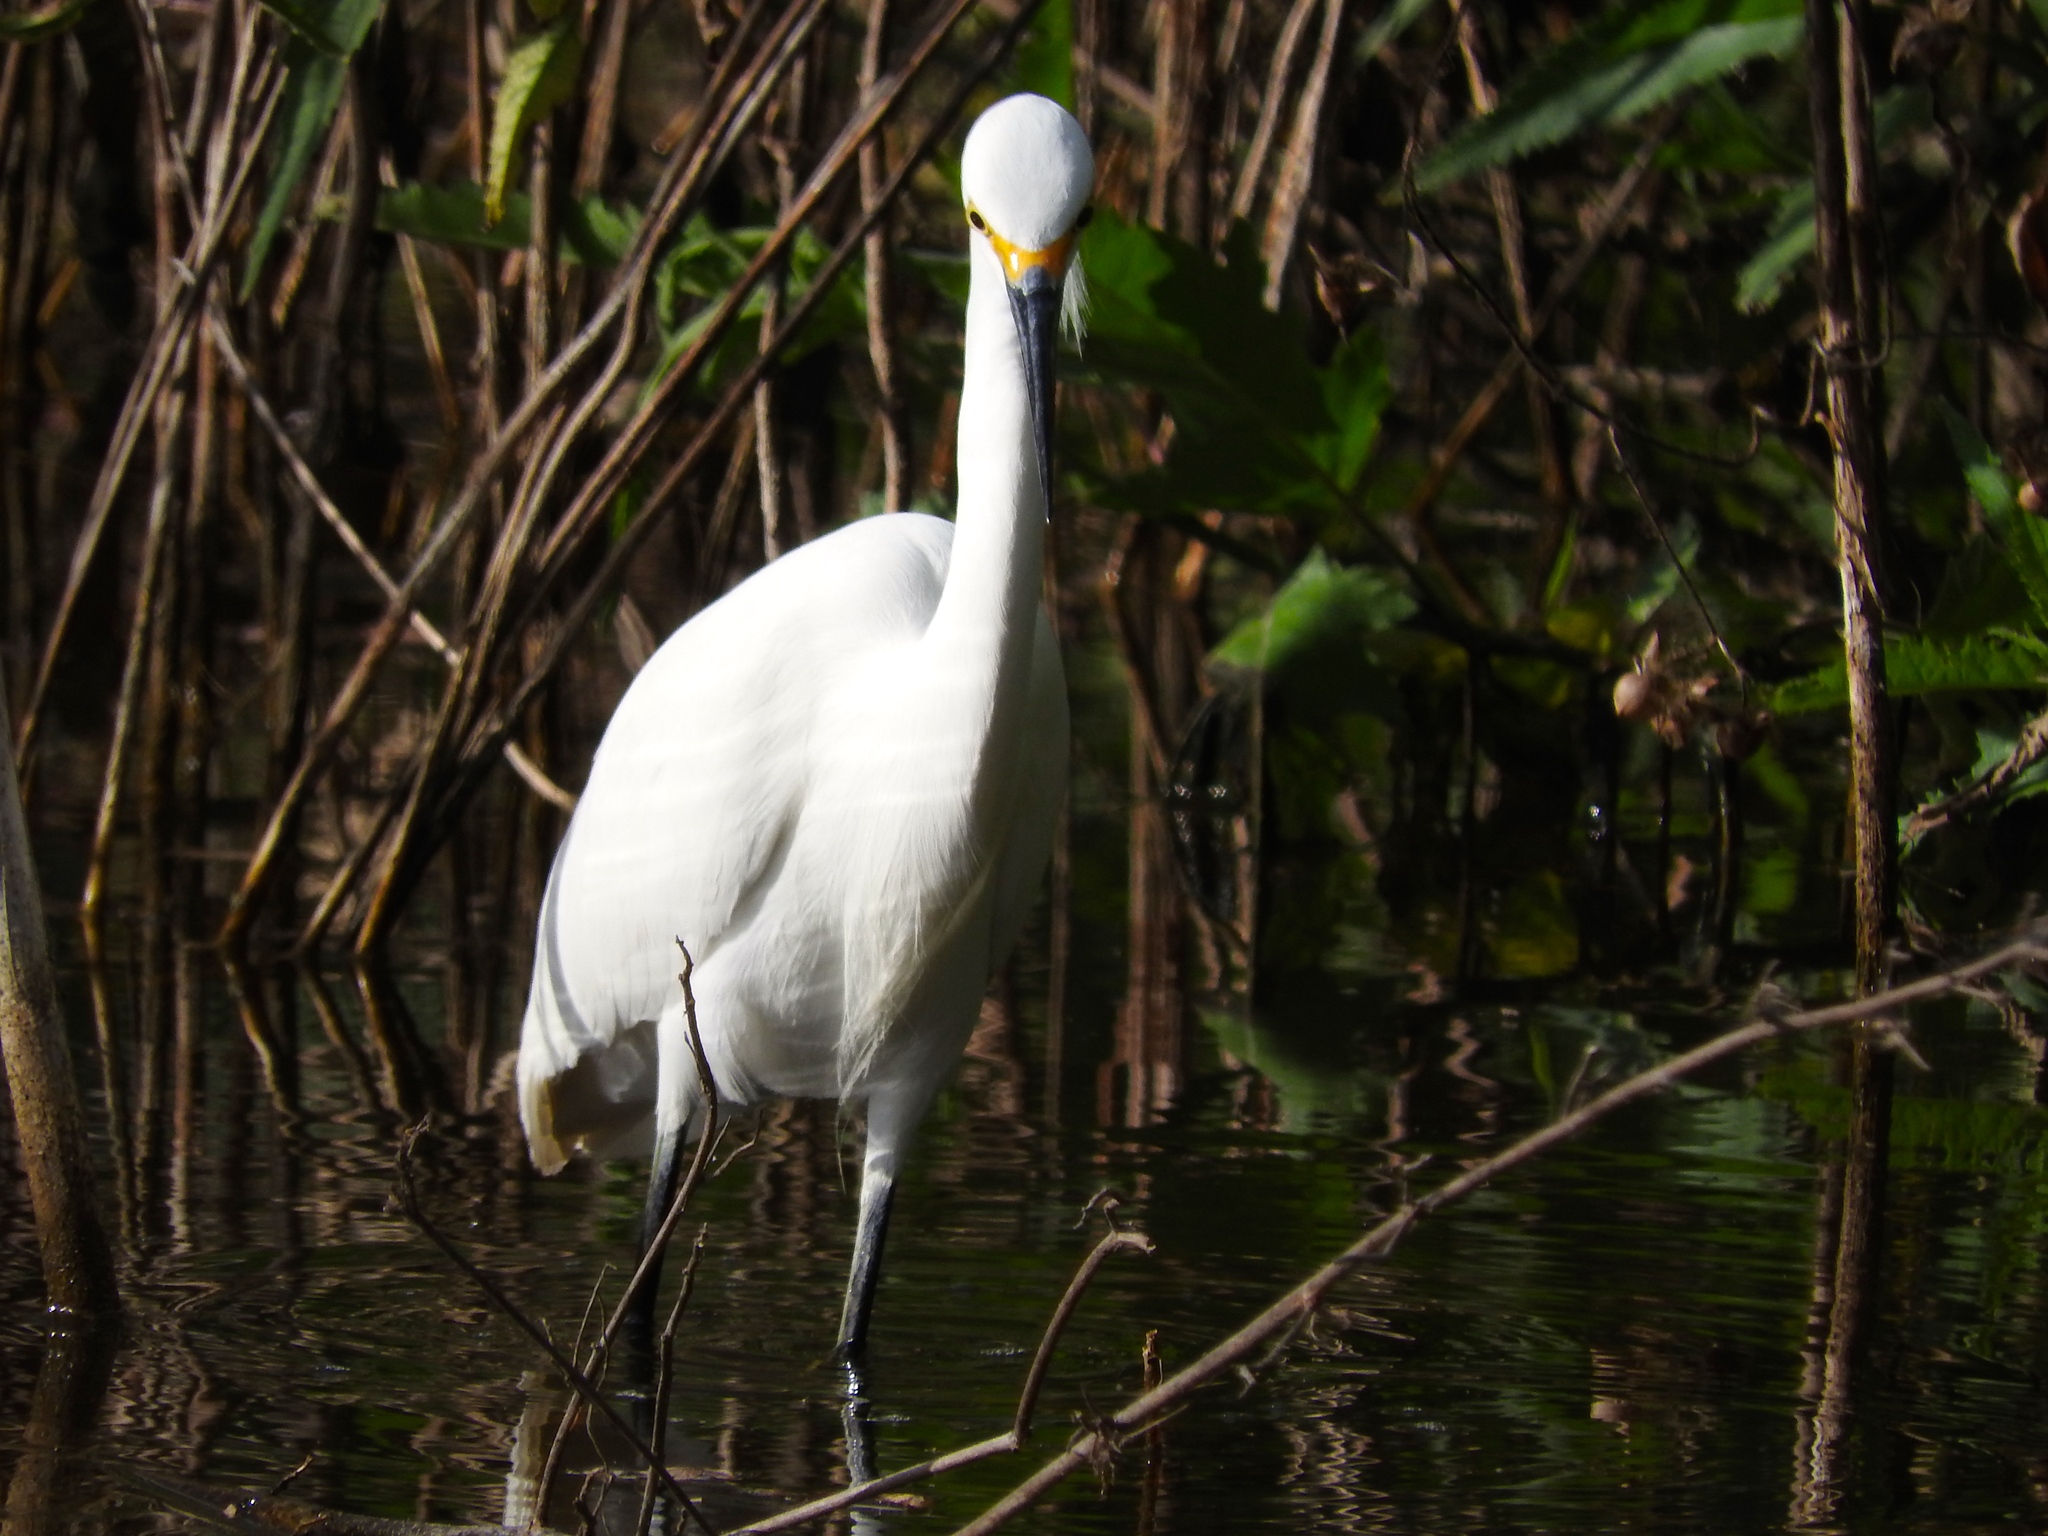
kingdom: Animalia
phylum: Chordata
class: Aves
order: Pelecaniformes
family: Ardeidae
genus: Egretta
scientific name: Egretta thula
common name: Snowy egret
